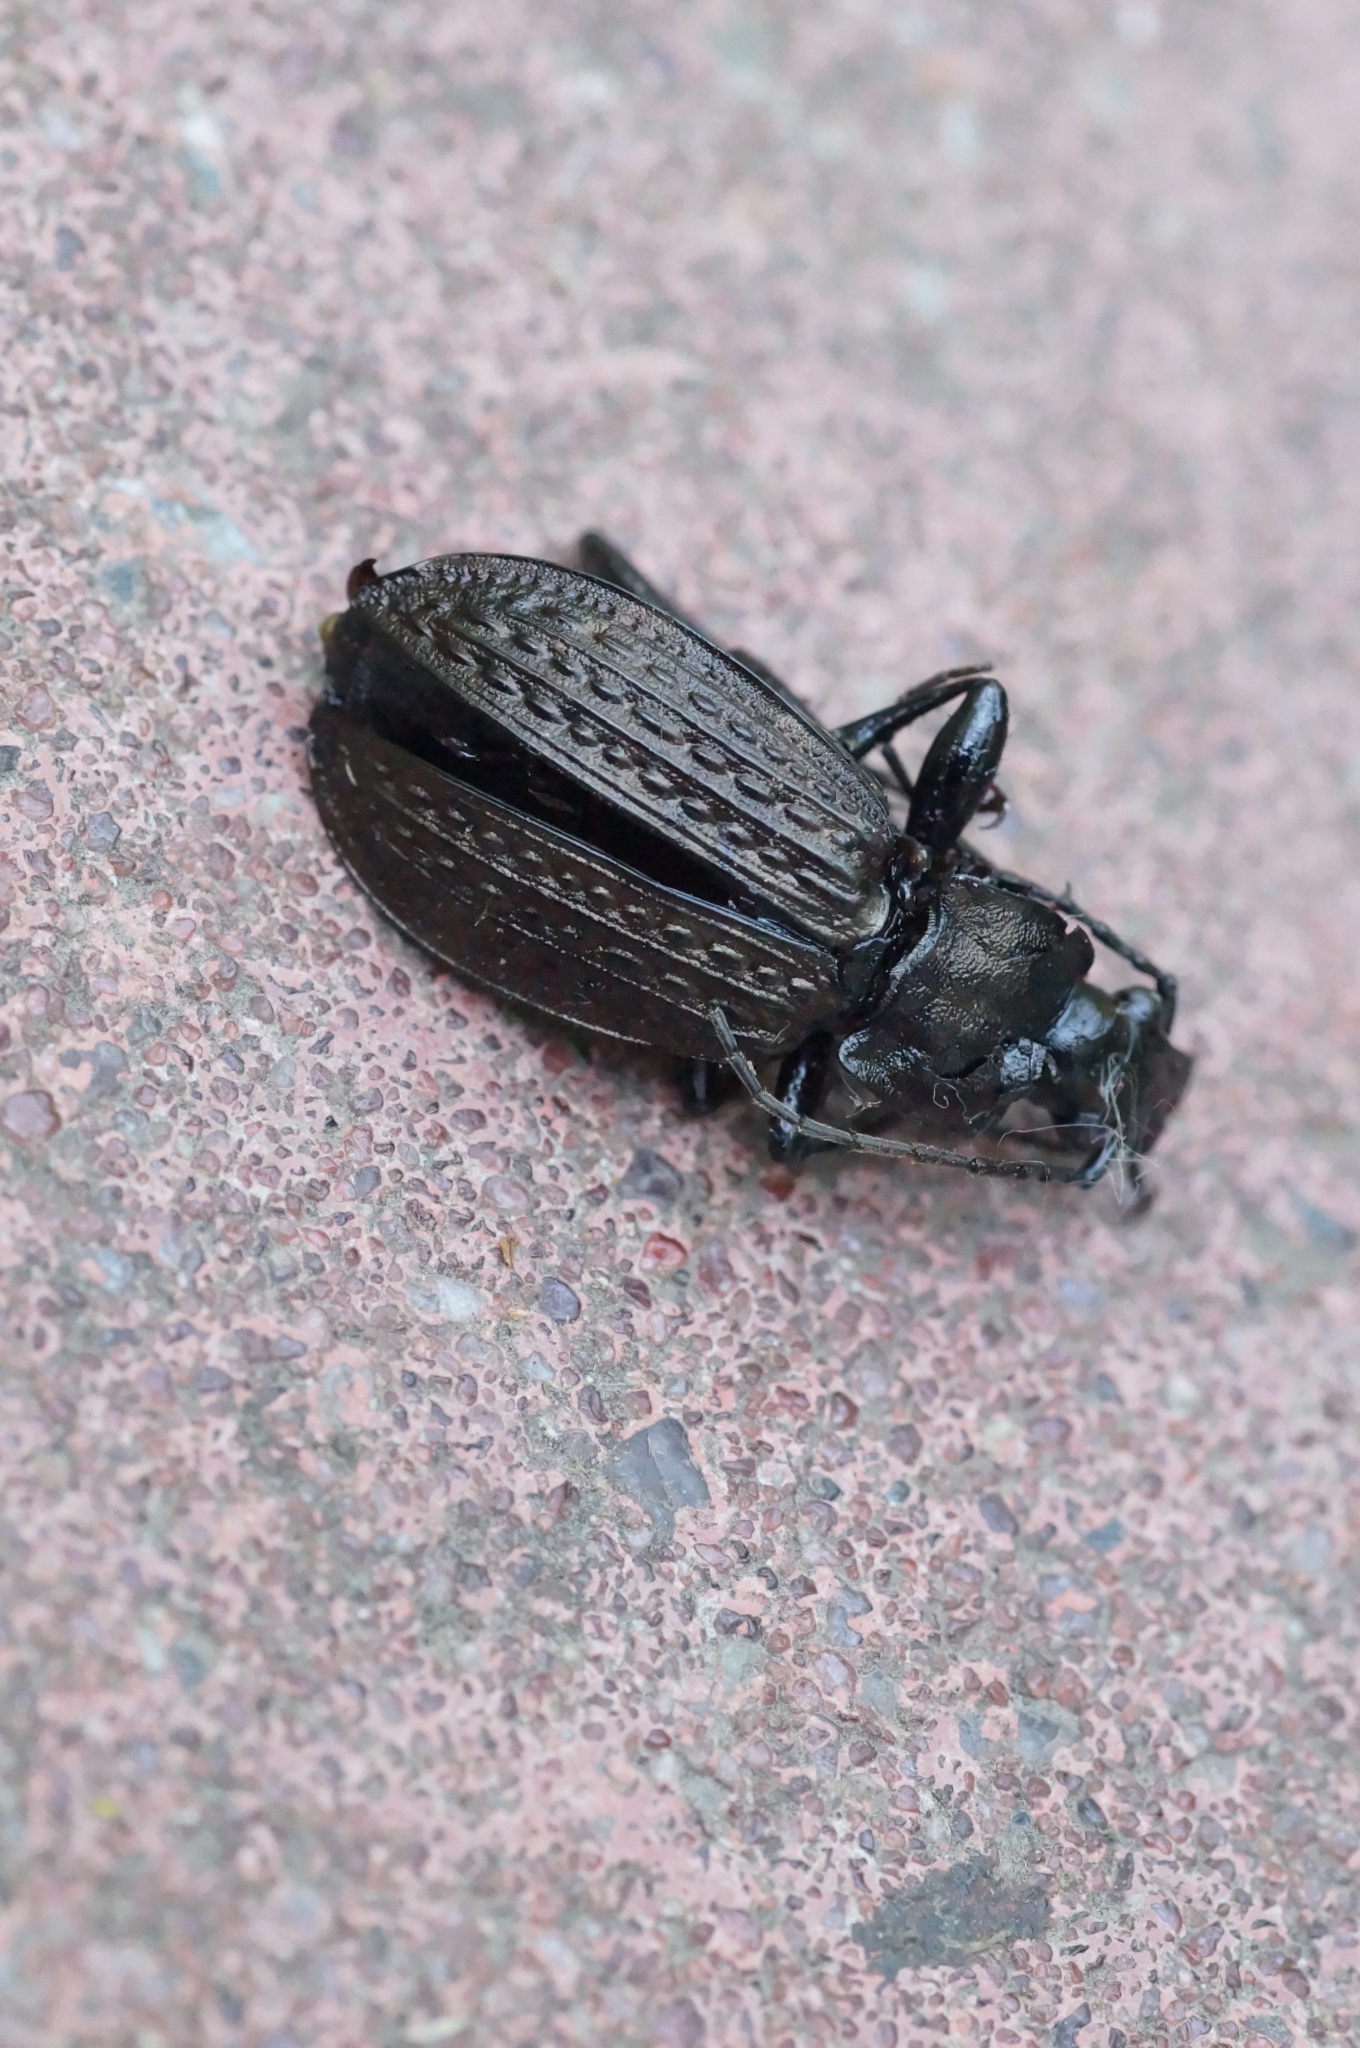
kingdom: Animalia
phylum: Arthropoda
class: Insecta
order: Coleoptera
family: Carabidae
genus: Carabus
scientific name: Carabus granulatus
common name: Granulate ground beetle
